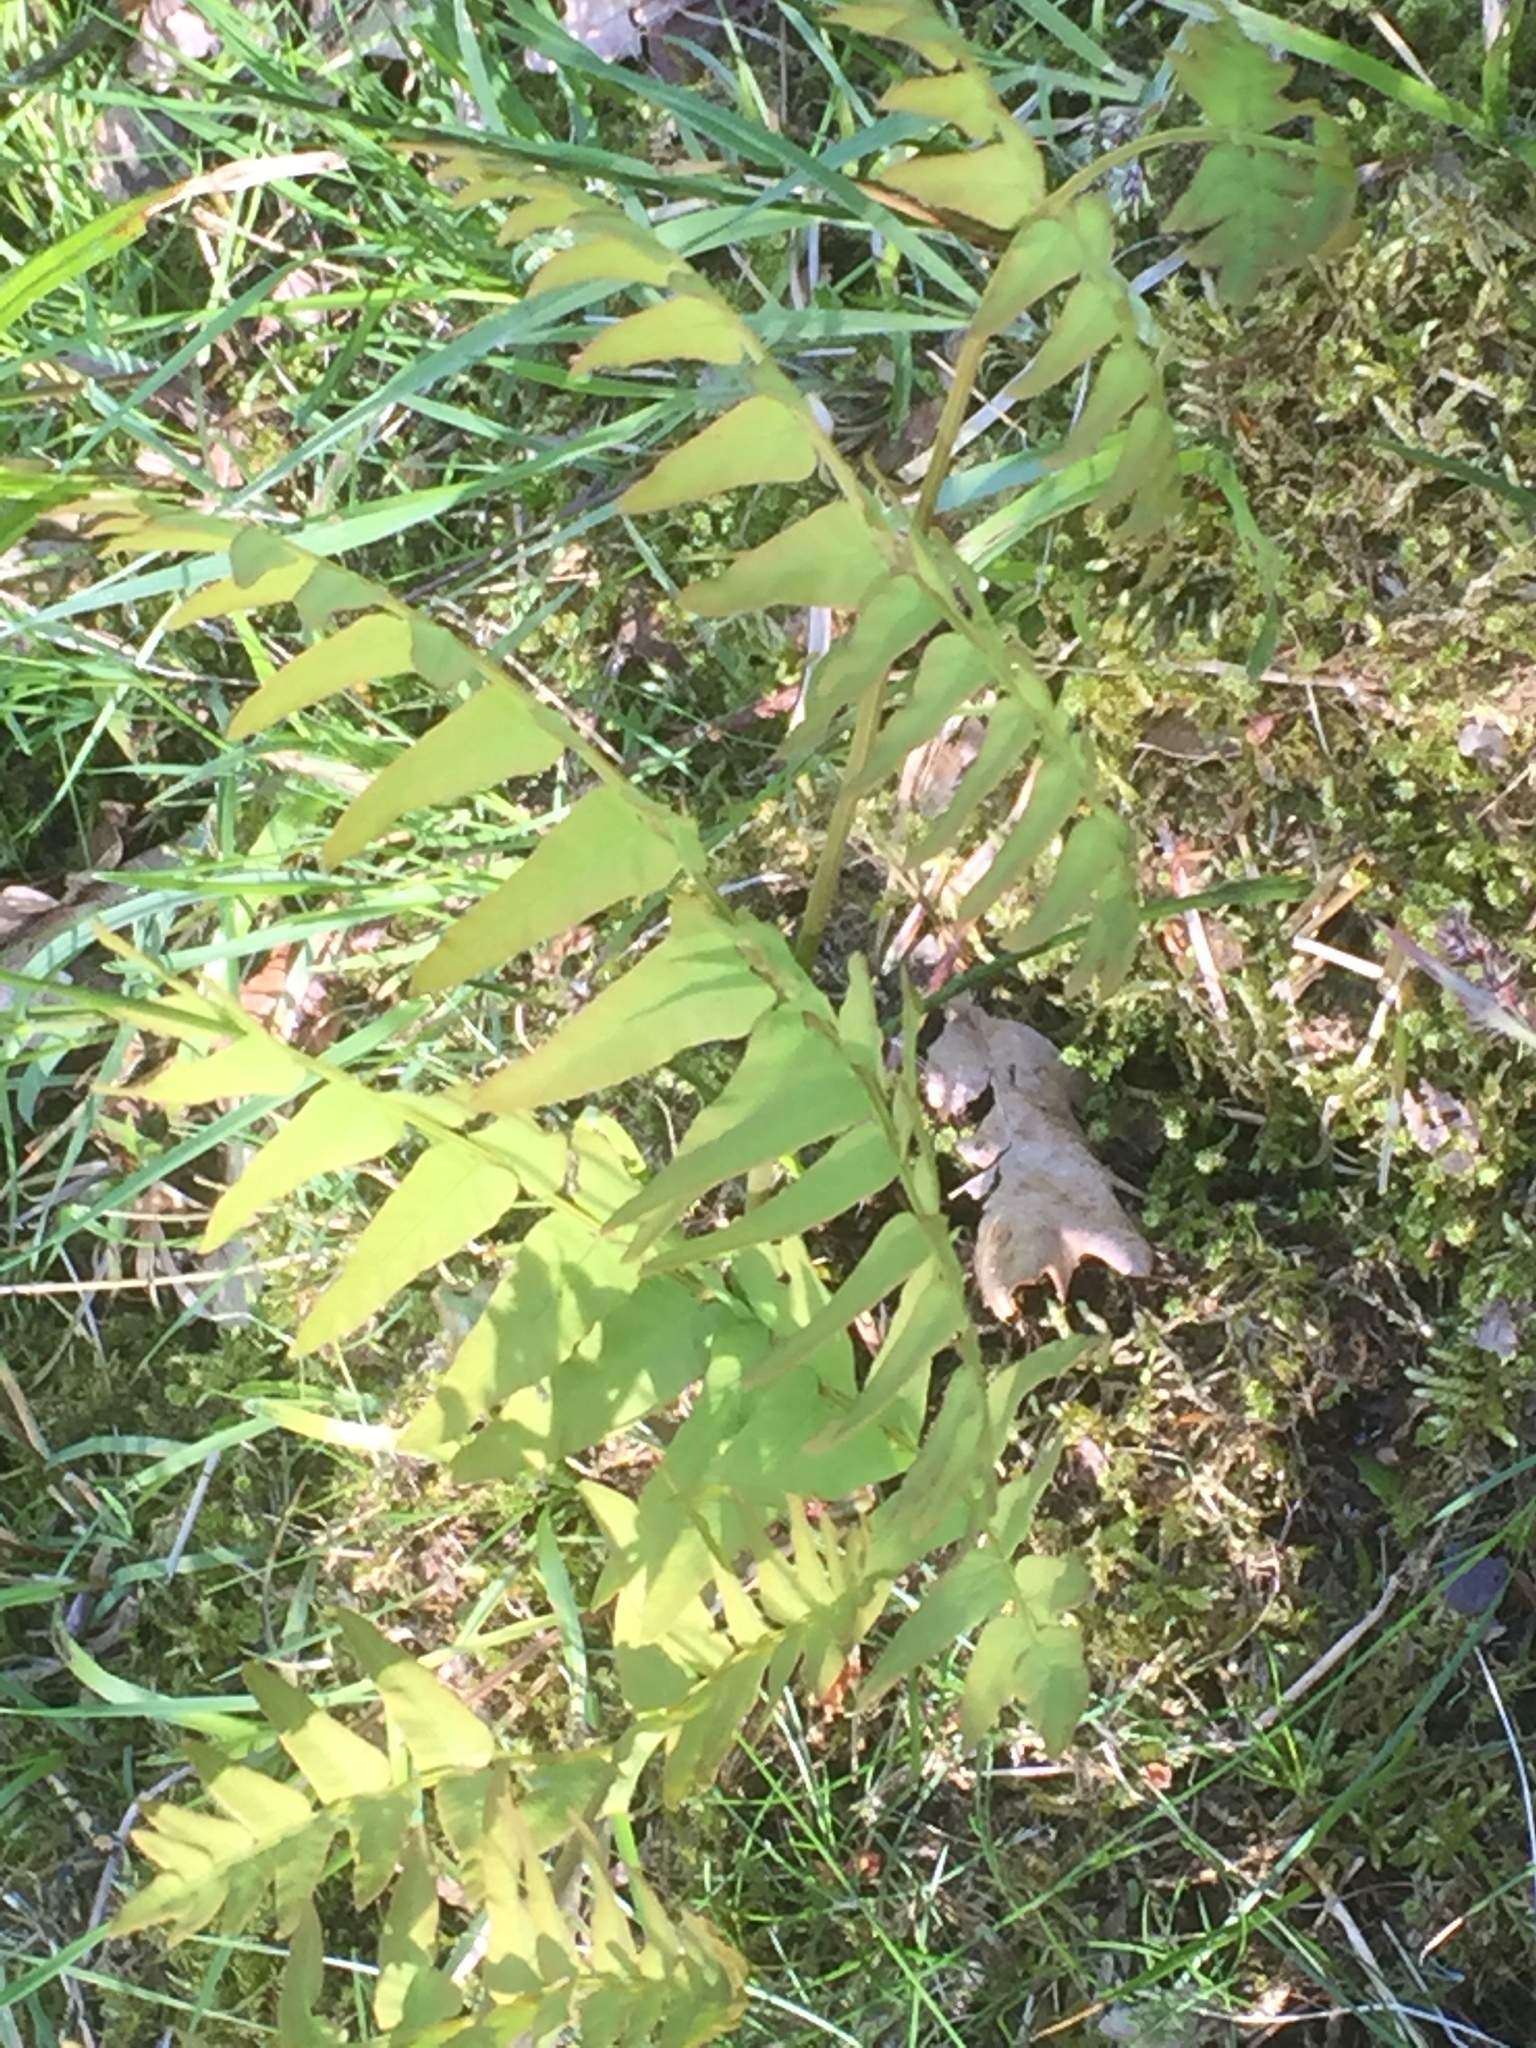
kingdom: Plantae
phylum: Tracheophyta
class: Polypodiopsida
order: Osmundales
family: Osmundaceae
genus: Osmunda
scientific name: Osmunda regalis
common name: Royal fern
